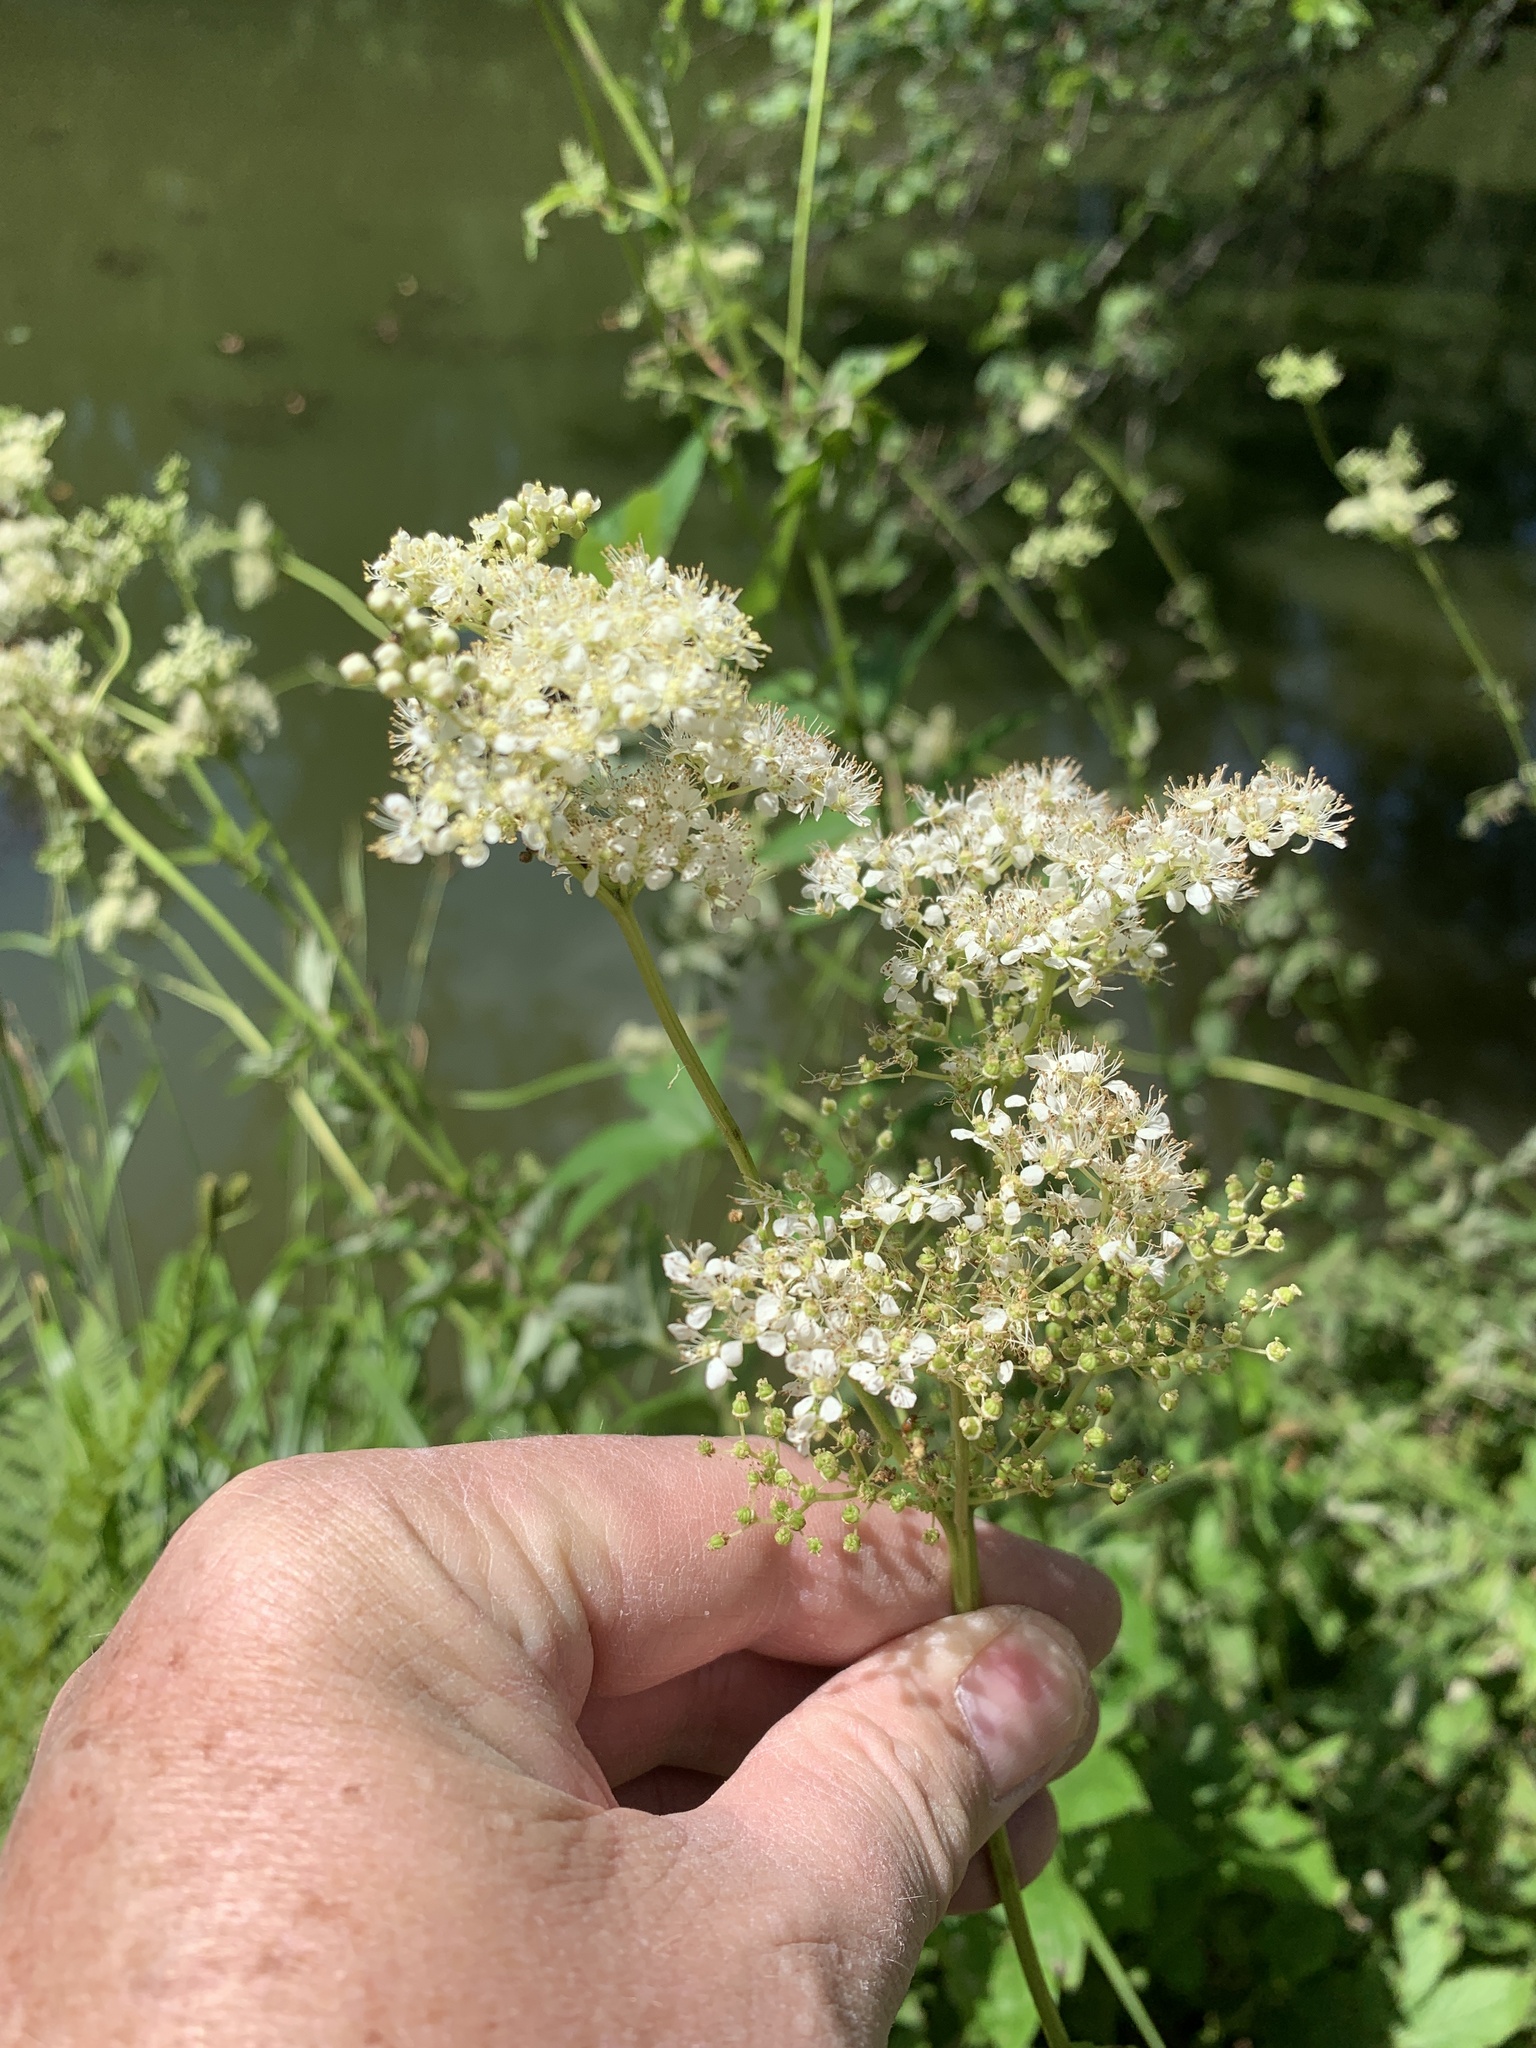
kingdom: Plantae
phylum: Tracheophyta
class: Magnoliopsida
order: Rosales
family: Rosaceae
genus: Filipendula
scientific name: Filipendula ulmaria
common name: Meadowsweet
